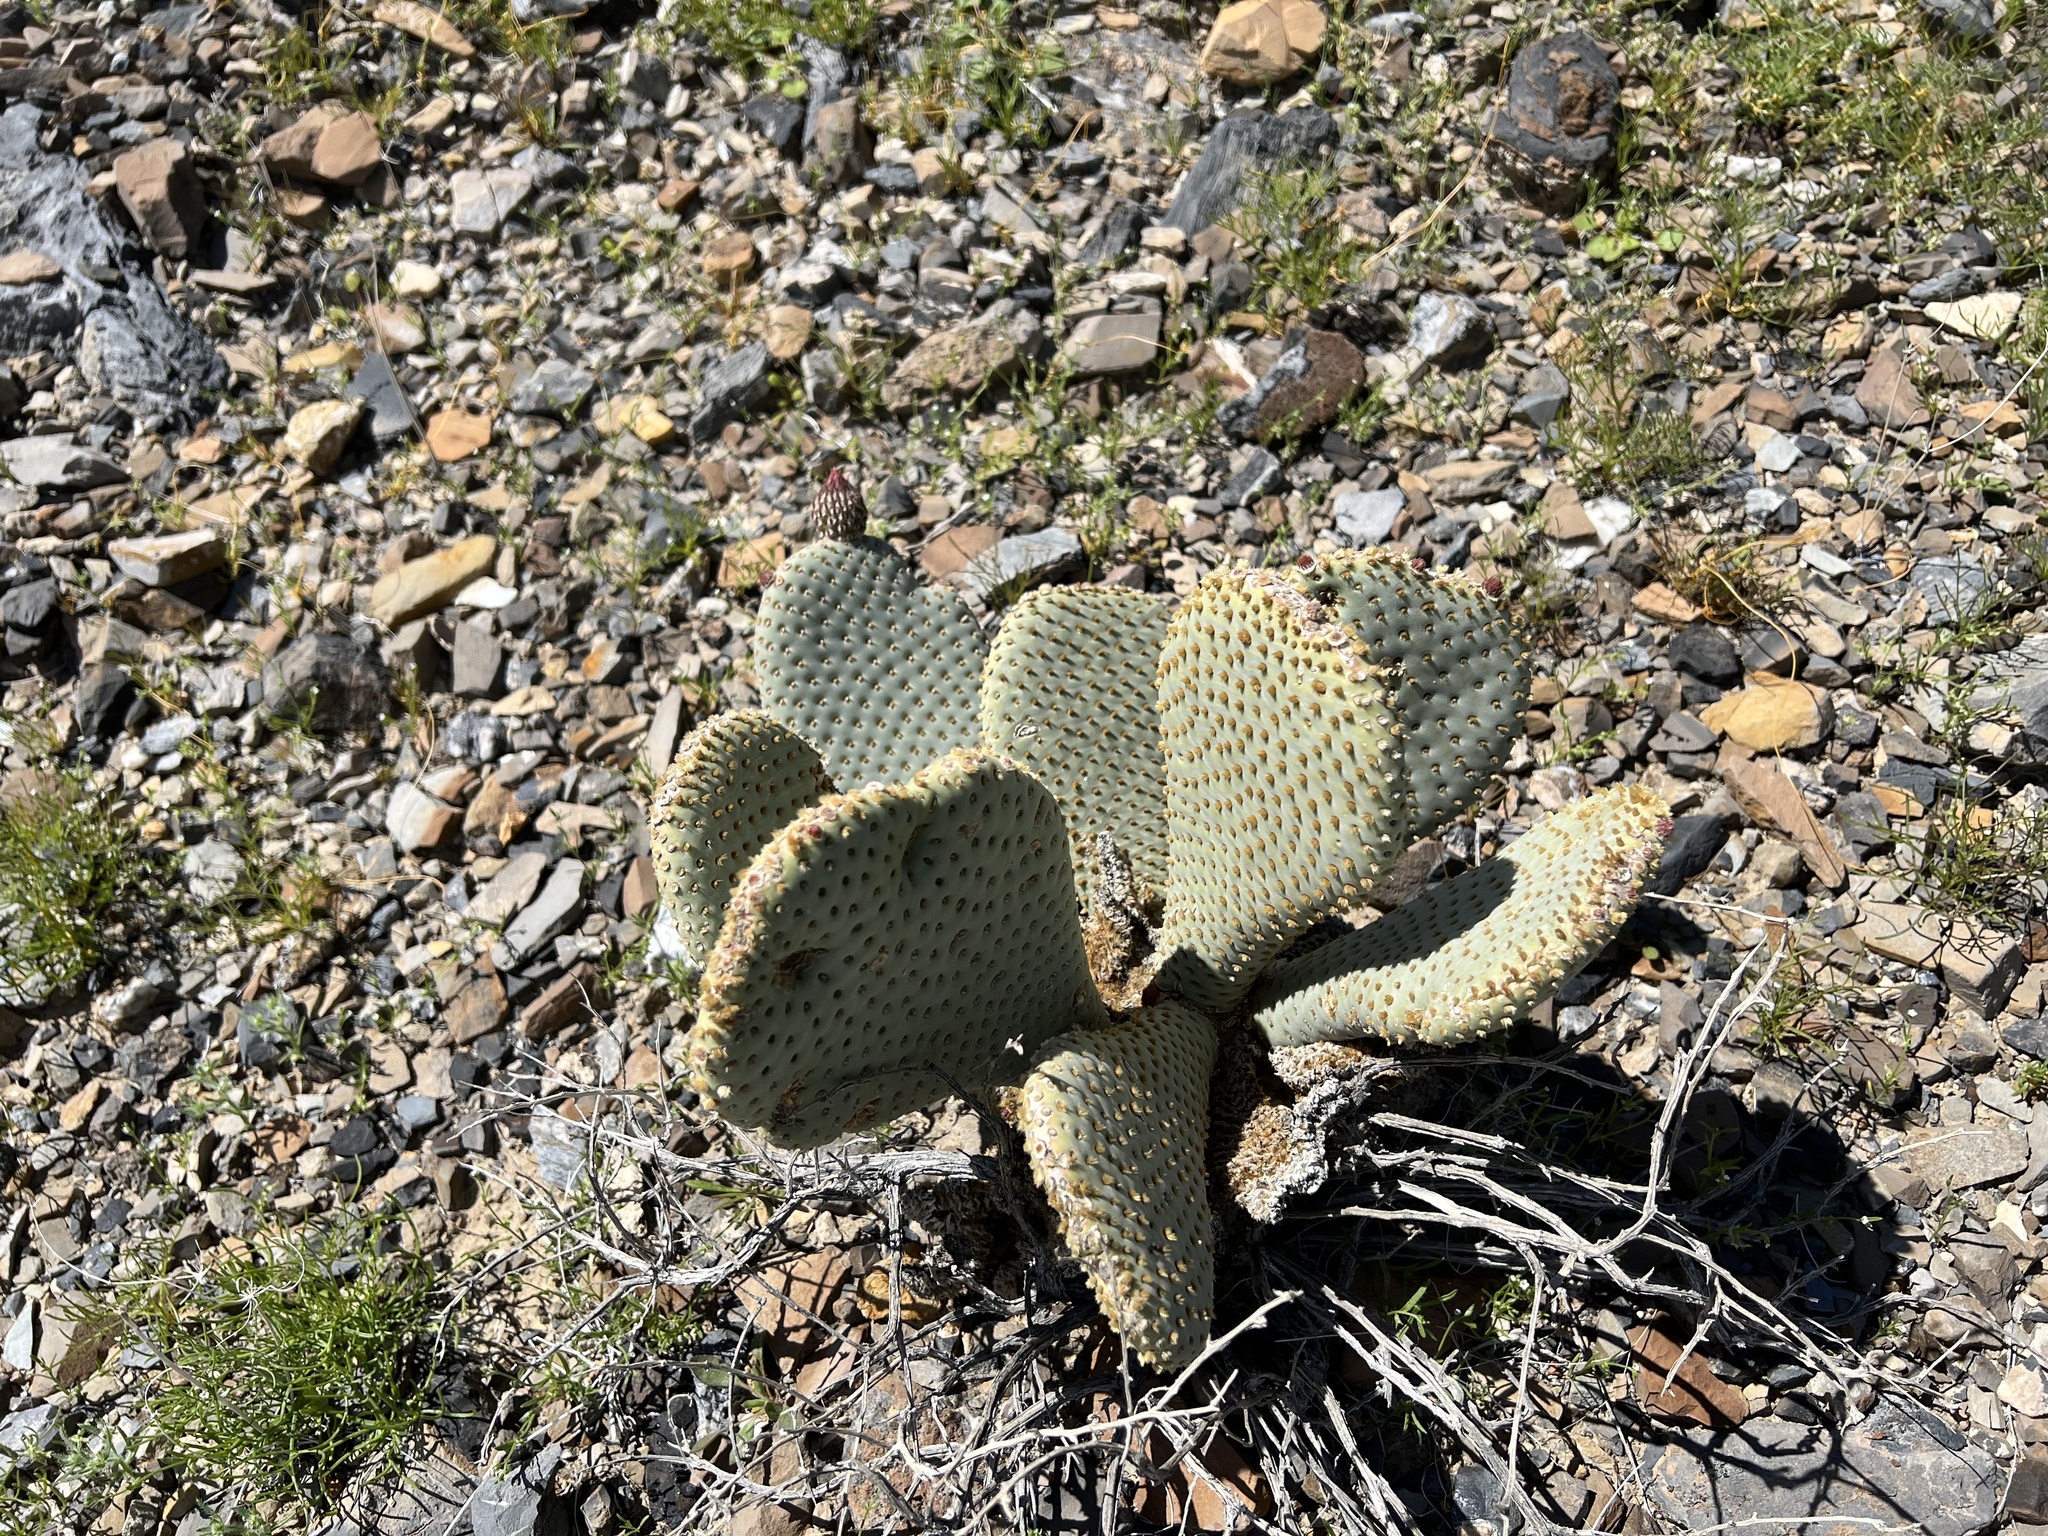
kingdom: Plantae
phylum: Tracheophyta
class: Magnoliopsida
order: Caryophyllales
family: Cactaceae
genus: Opuntia
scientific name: Opuntia basilaris
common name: Beavertail prickly-pear
